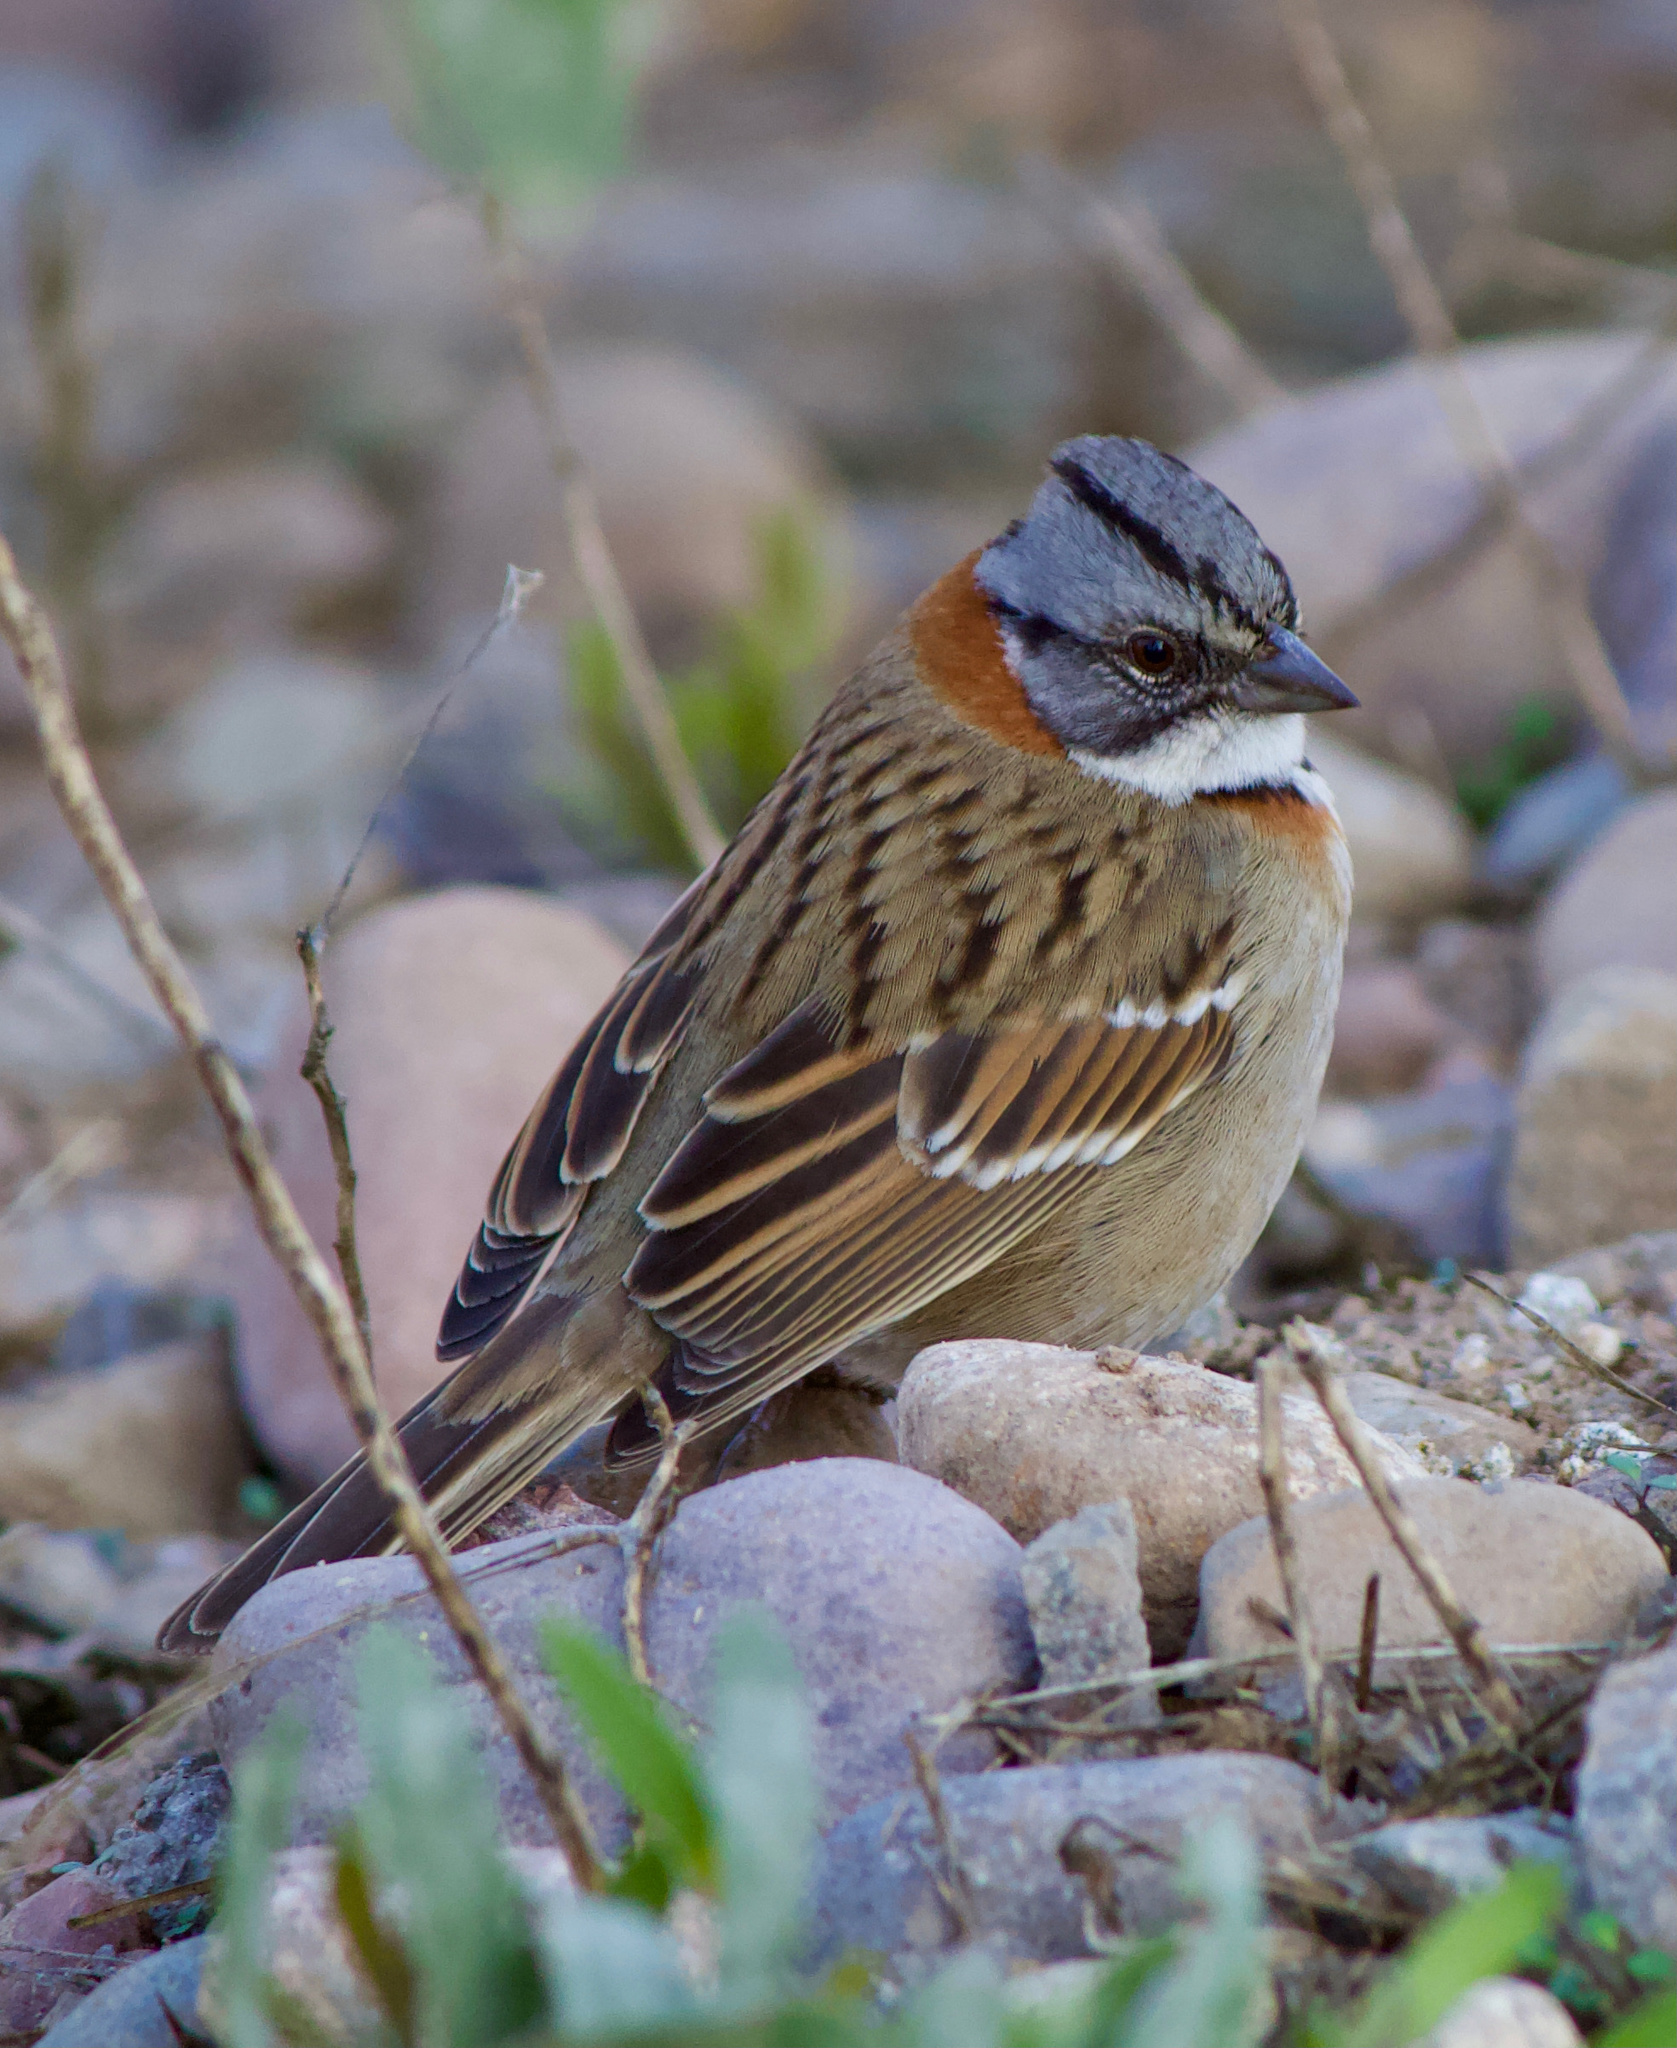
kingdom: Animalia
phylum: Chordata
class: Aves
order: Passeriformes
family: Passerellidae
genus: Zonotrichia
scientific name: Zonotrichia capensis
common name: Rufous-collared sparrow
